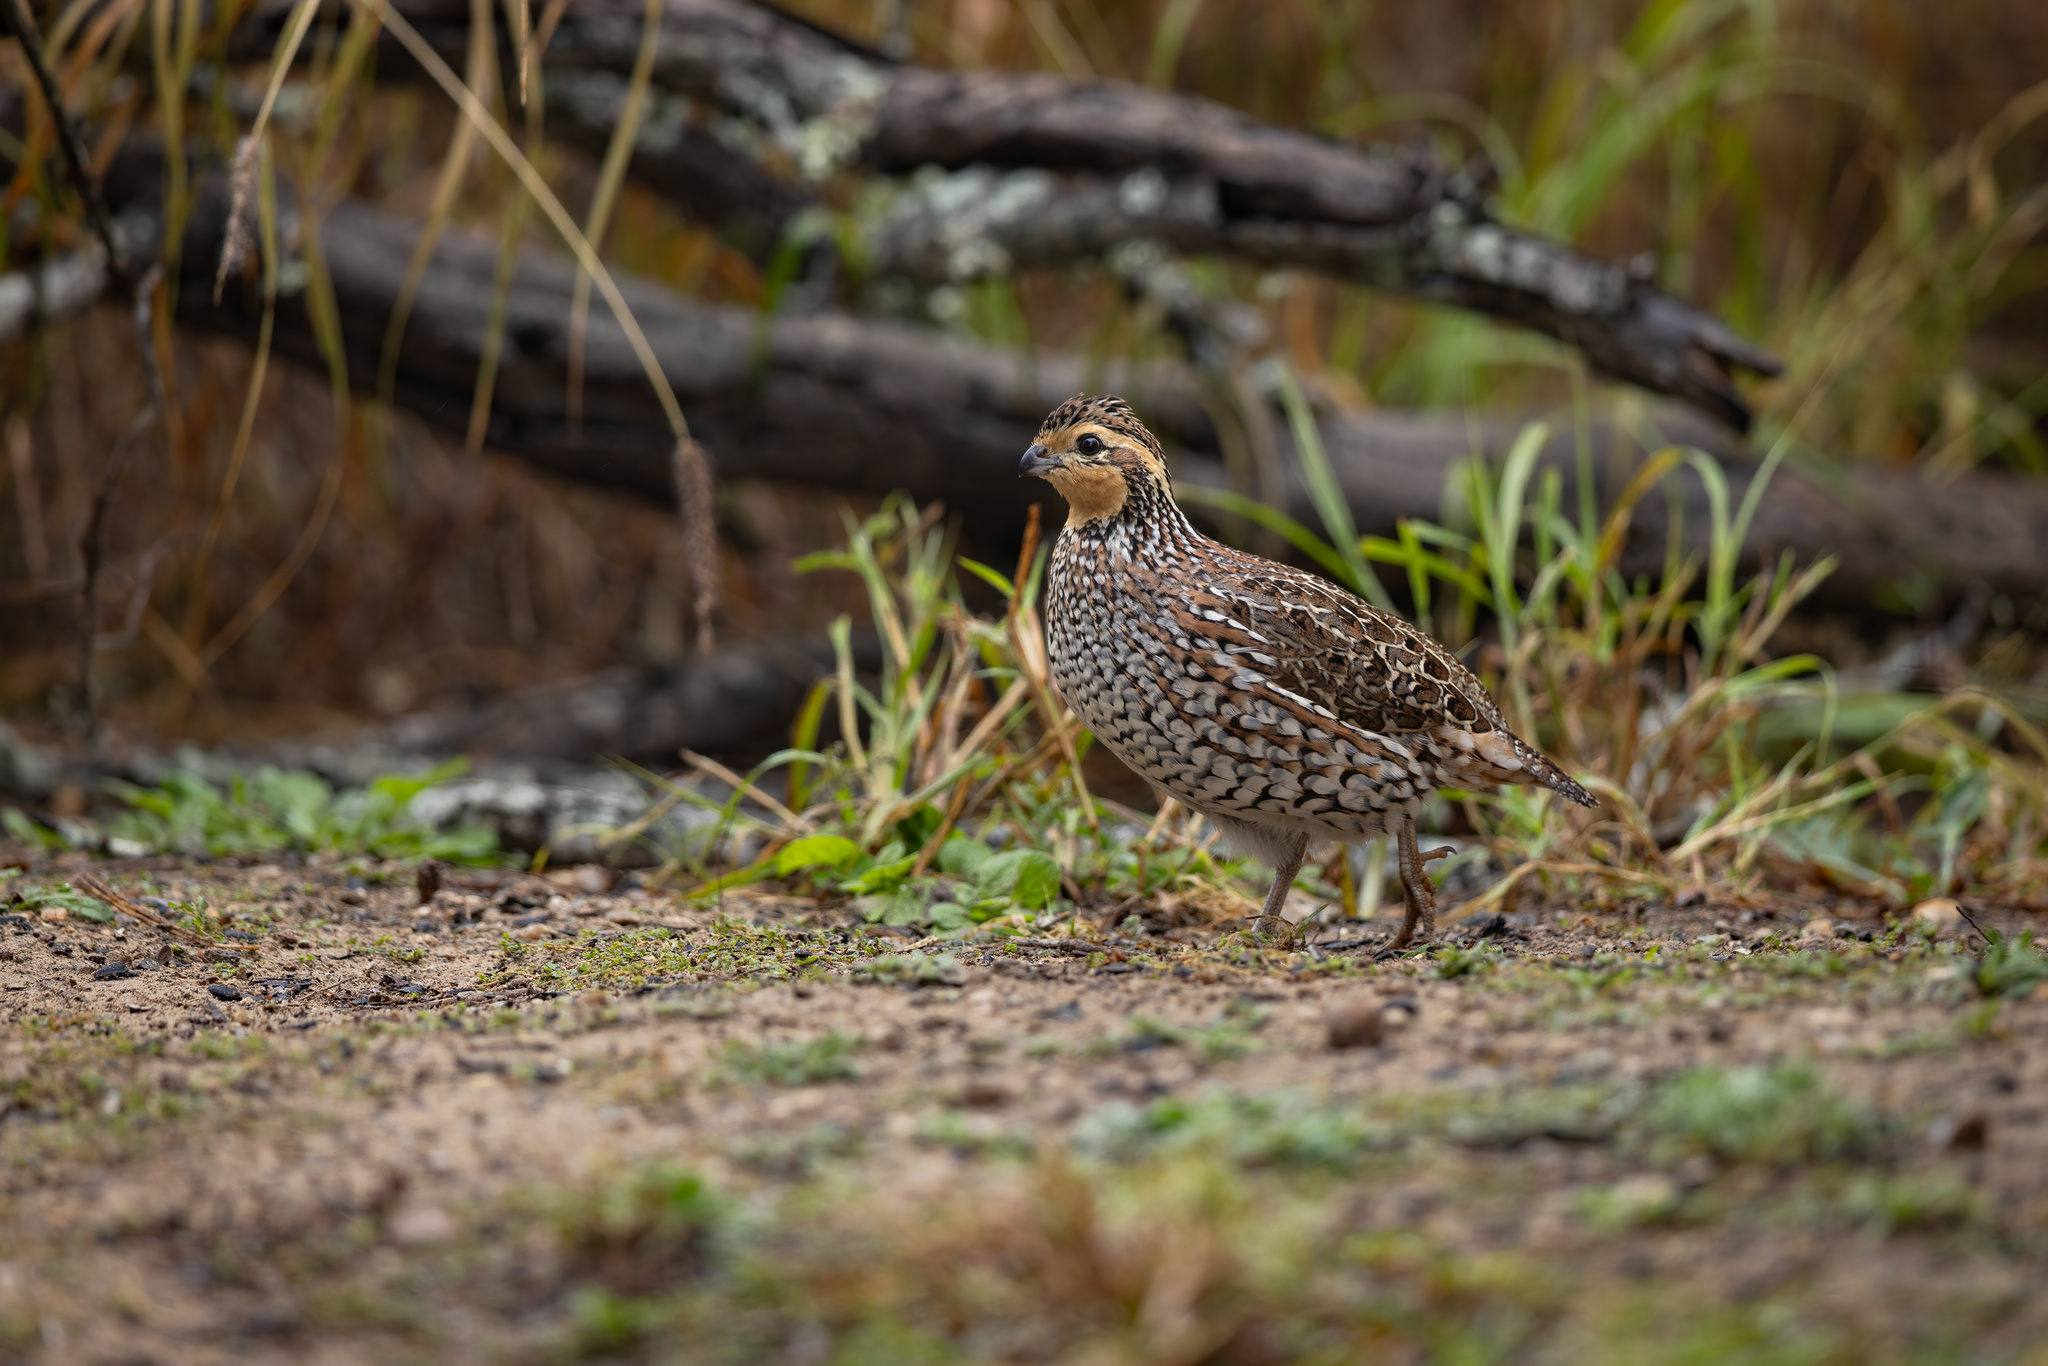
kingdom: Animalia
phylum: Chordata
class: Aves
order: Galliformes
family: Odontophoridae
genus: Colinus
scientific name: Colinus virginianus
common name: Northern bobwhite
